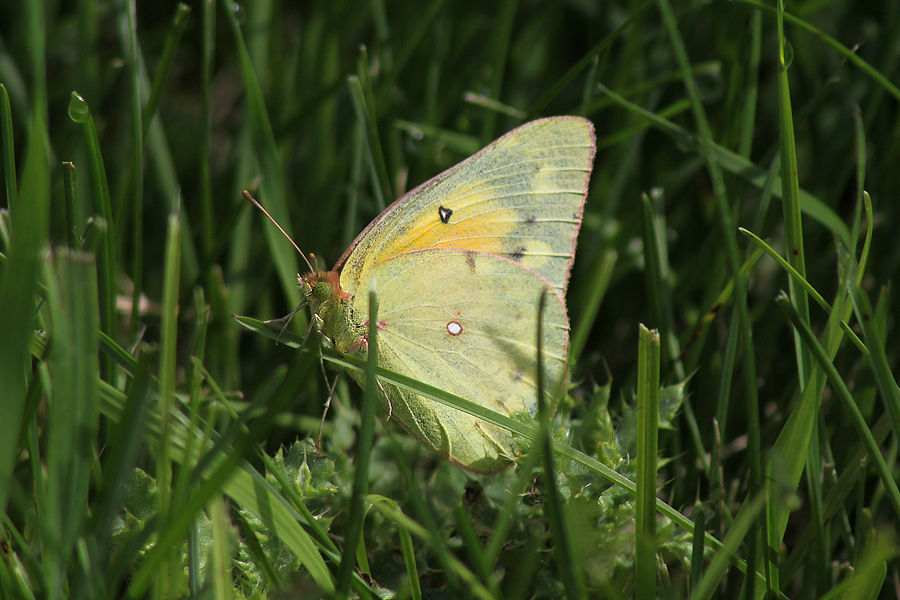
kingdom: Animalia
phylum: Arthropoda
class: Insecta
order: Lepidoptera
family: Pieridae
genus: Colias
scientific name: Colias eurytheme
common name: Alfalfa butterfly
